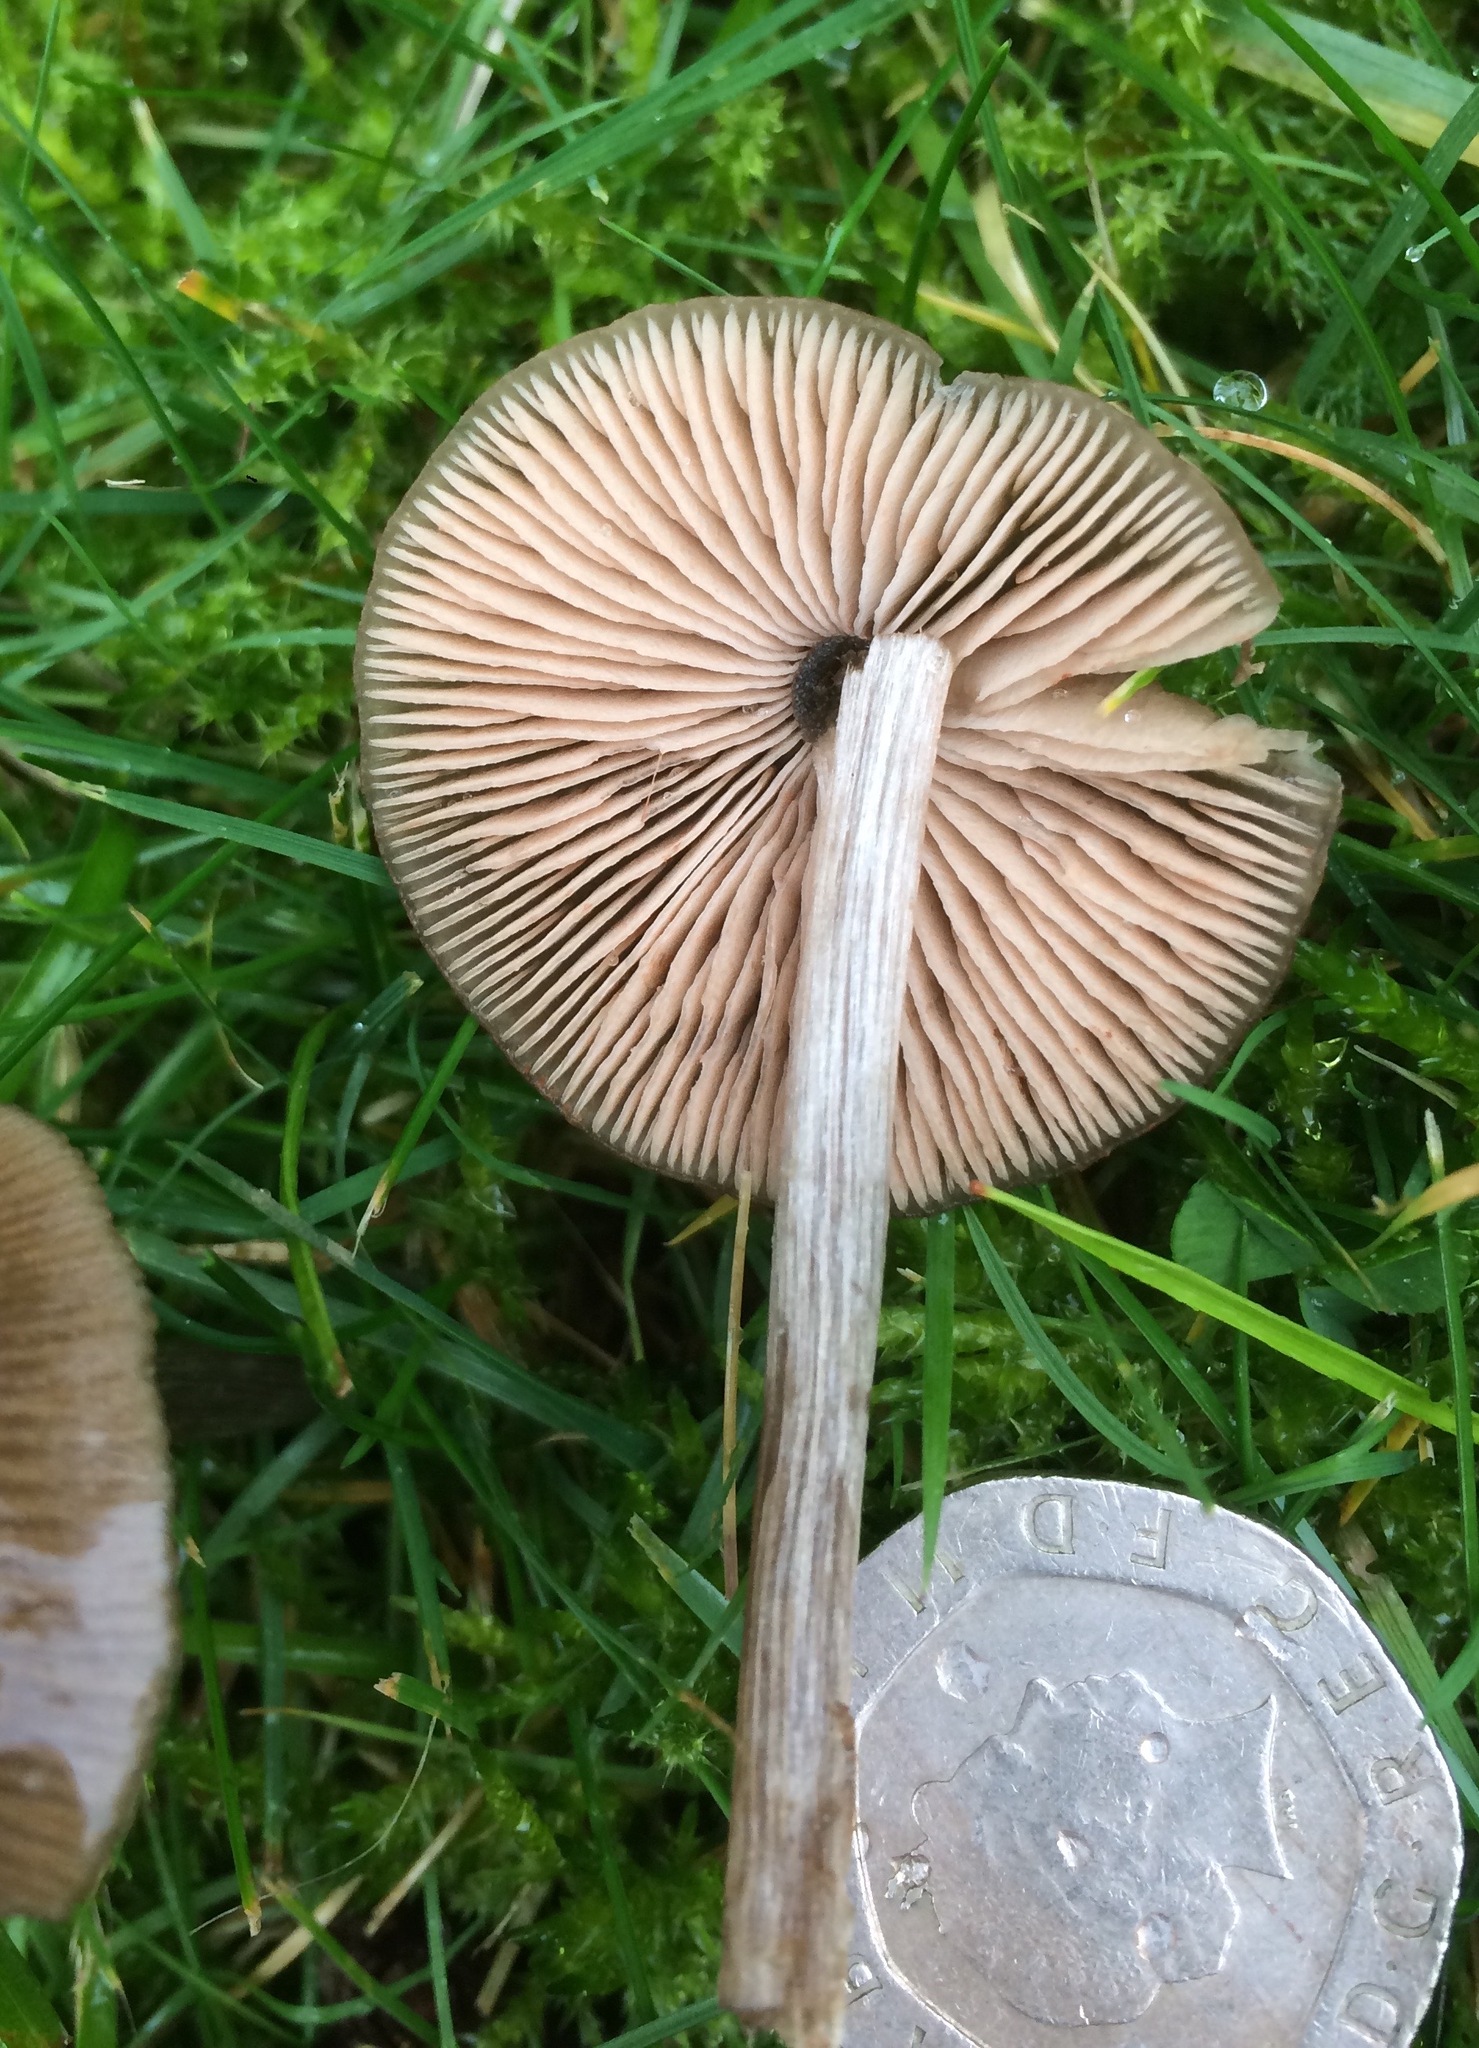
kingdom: Fungi
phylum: Basidiomycota
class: Agaricomycetes
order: Agaricales
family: Entolomataceae
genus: Entoloma
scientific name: Entoloma conferendum
